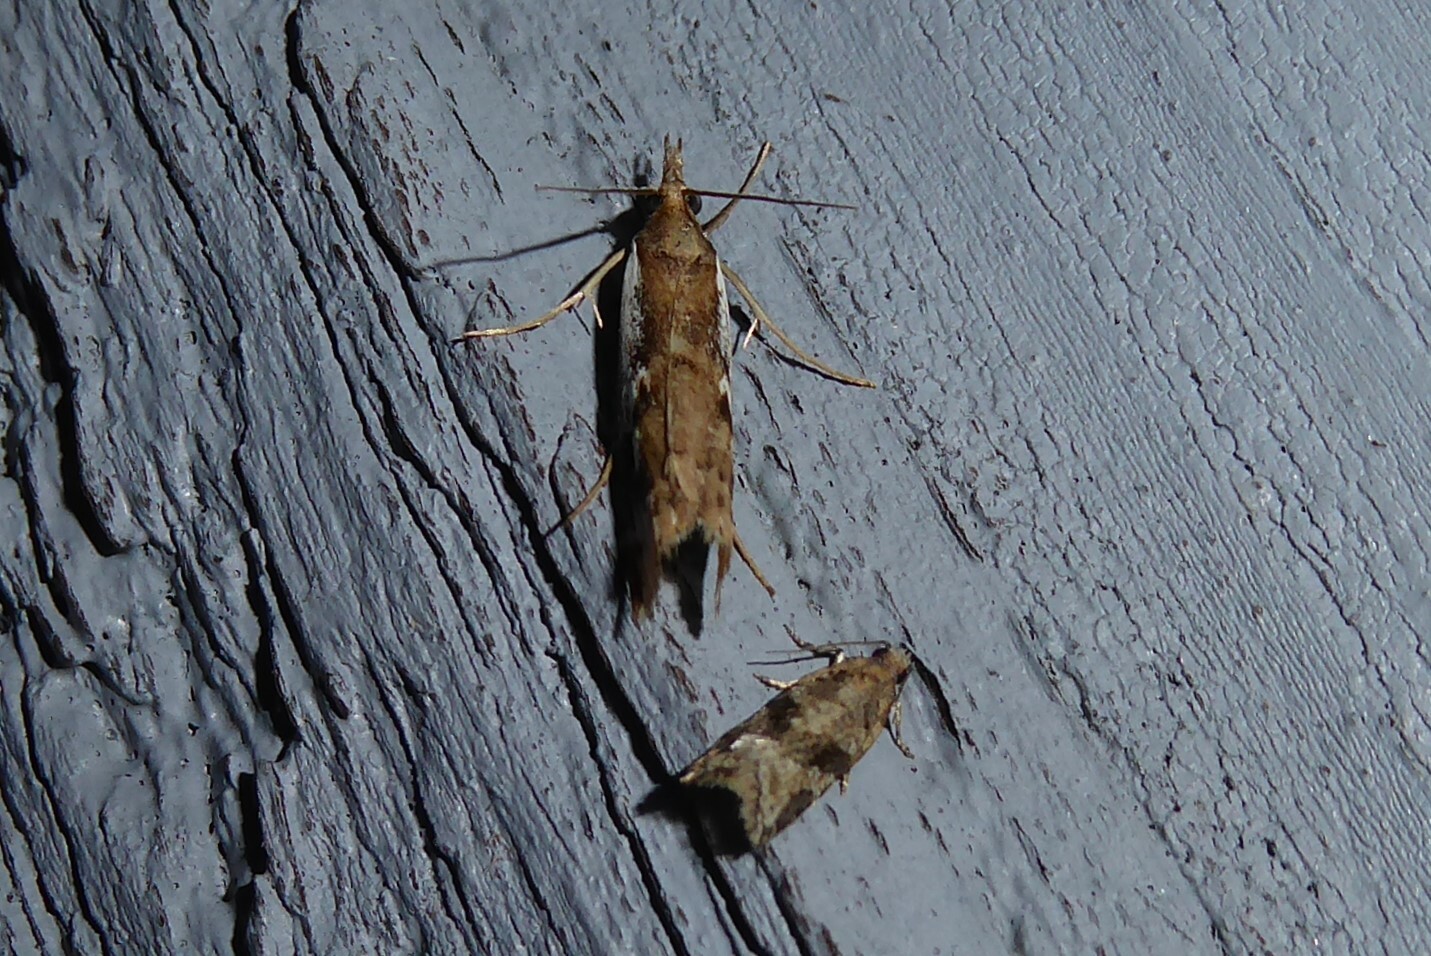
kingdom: Animalia
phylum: Arthropoda
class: Insecta
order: Lepidoptera
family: Crambidae
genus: Orocrambus
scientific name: Orocrambus vulgaris
